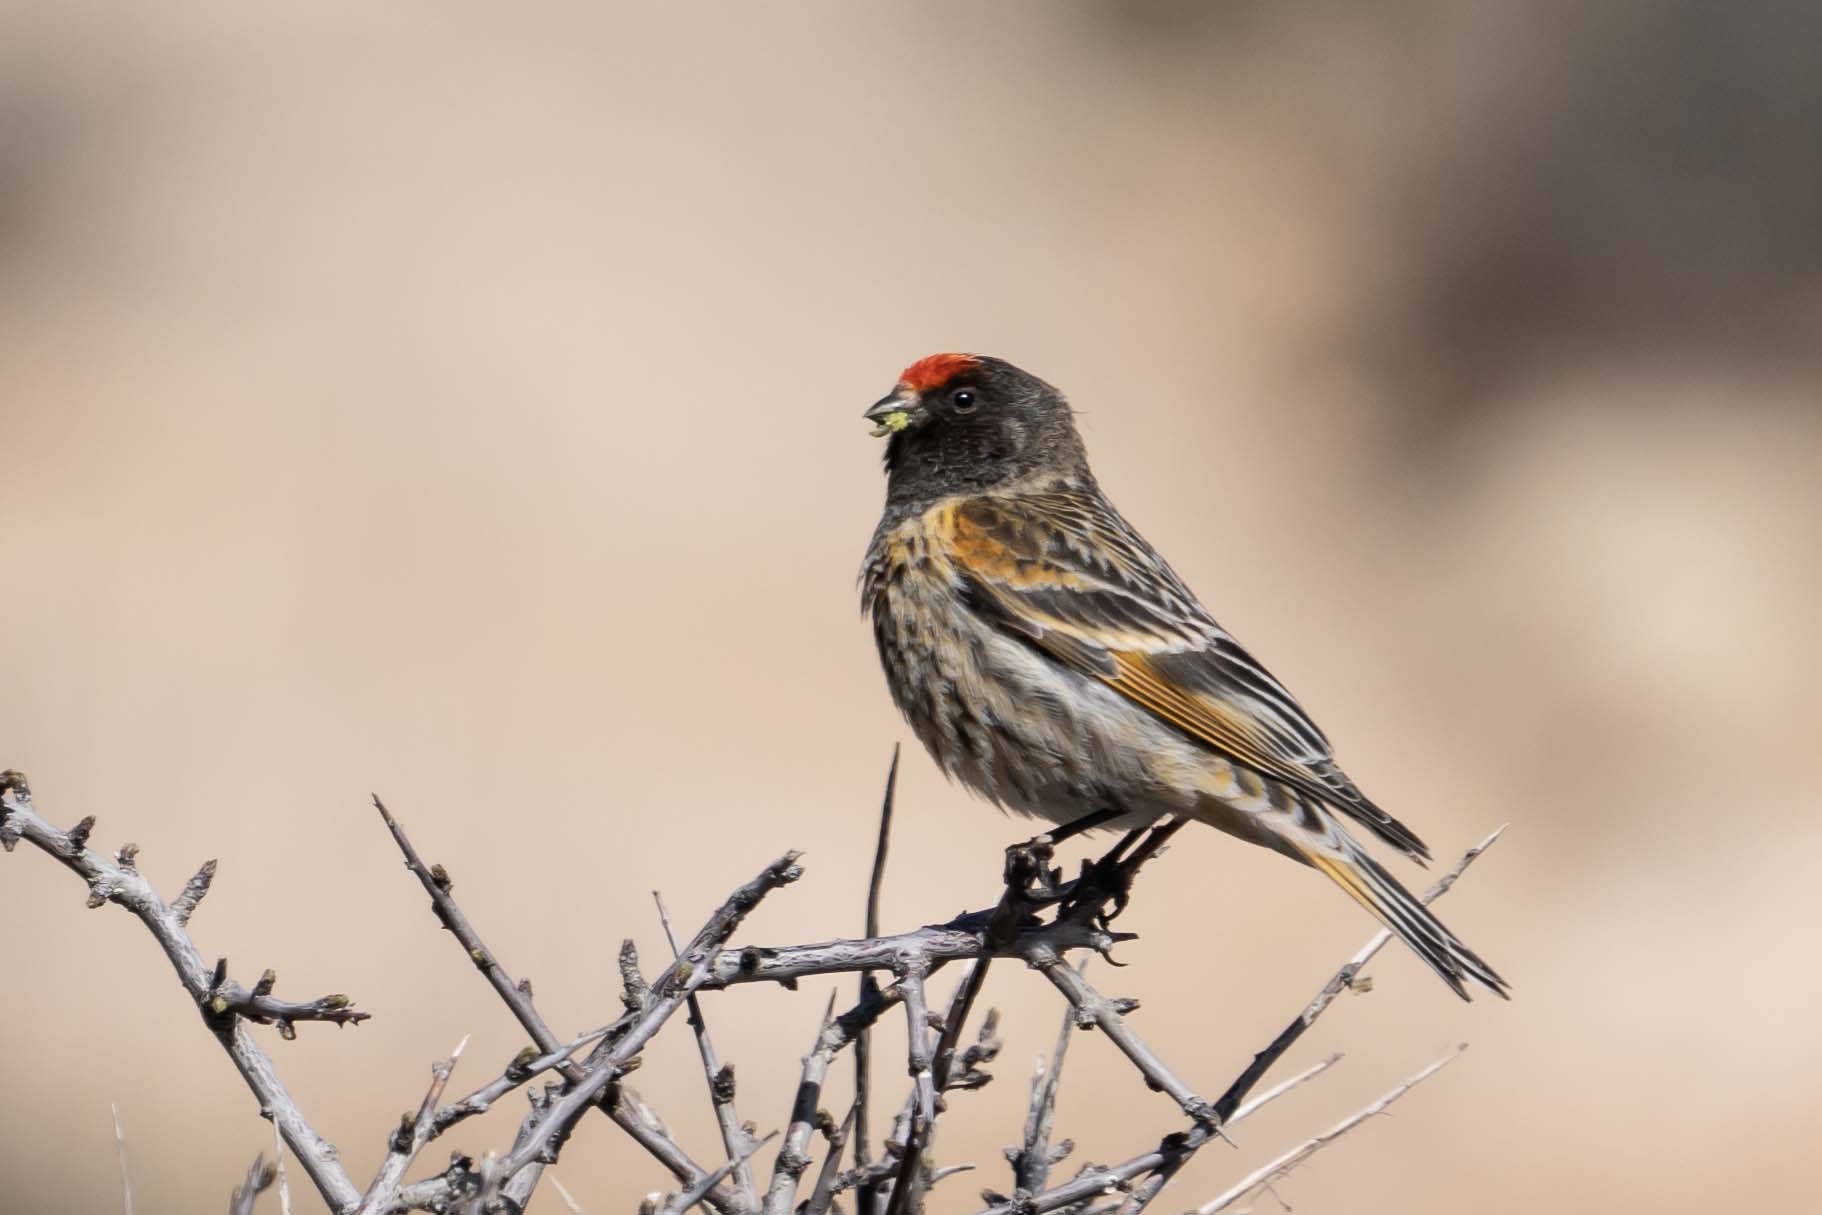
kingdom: Animalia
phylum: Chordata
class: Aves
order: Passeriformes
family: Fringillidae
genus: Serinus
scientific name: Serinus pusillus
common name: Red-fronted serin
